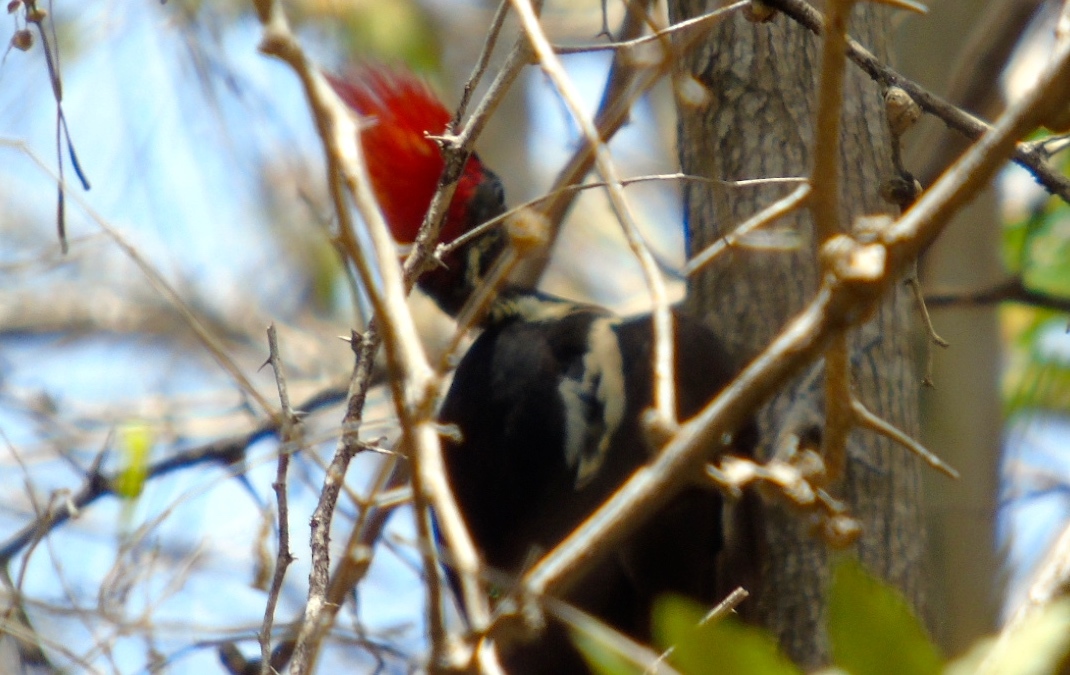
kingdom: Animalia
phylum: Chordata
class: Aves
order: Piciformes
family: Picidae
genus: Dryocopus
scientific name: Dryocopus lineatus
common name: Lineated woodpecker
